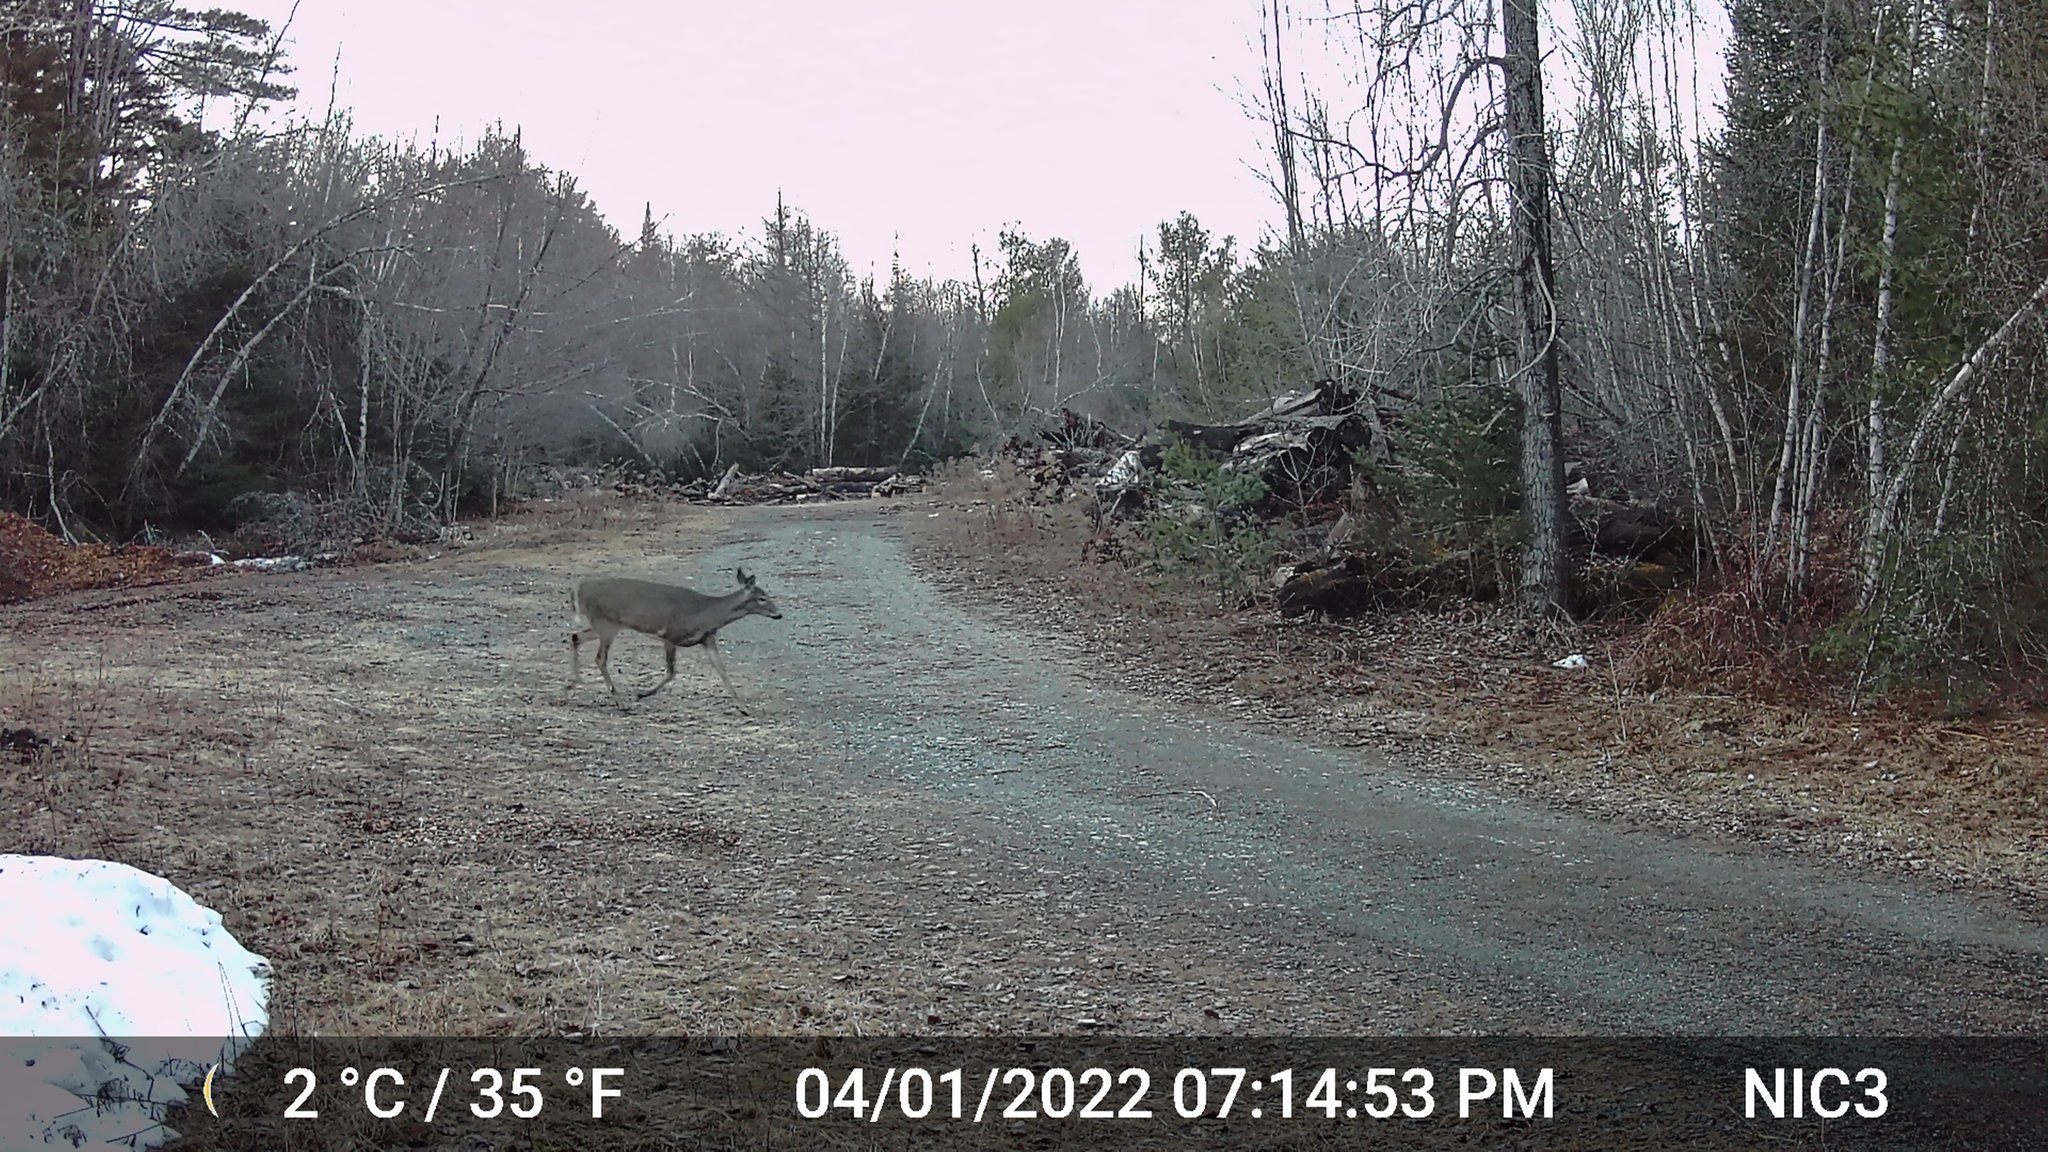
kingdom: Animalia
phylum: Chordata
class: Mammalia
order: Artiodactyla
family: Cervidae
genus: Odocoileus
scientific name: Odocoileus virginianus
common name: White-tailed deer
